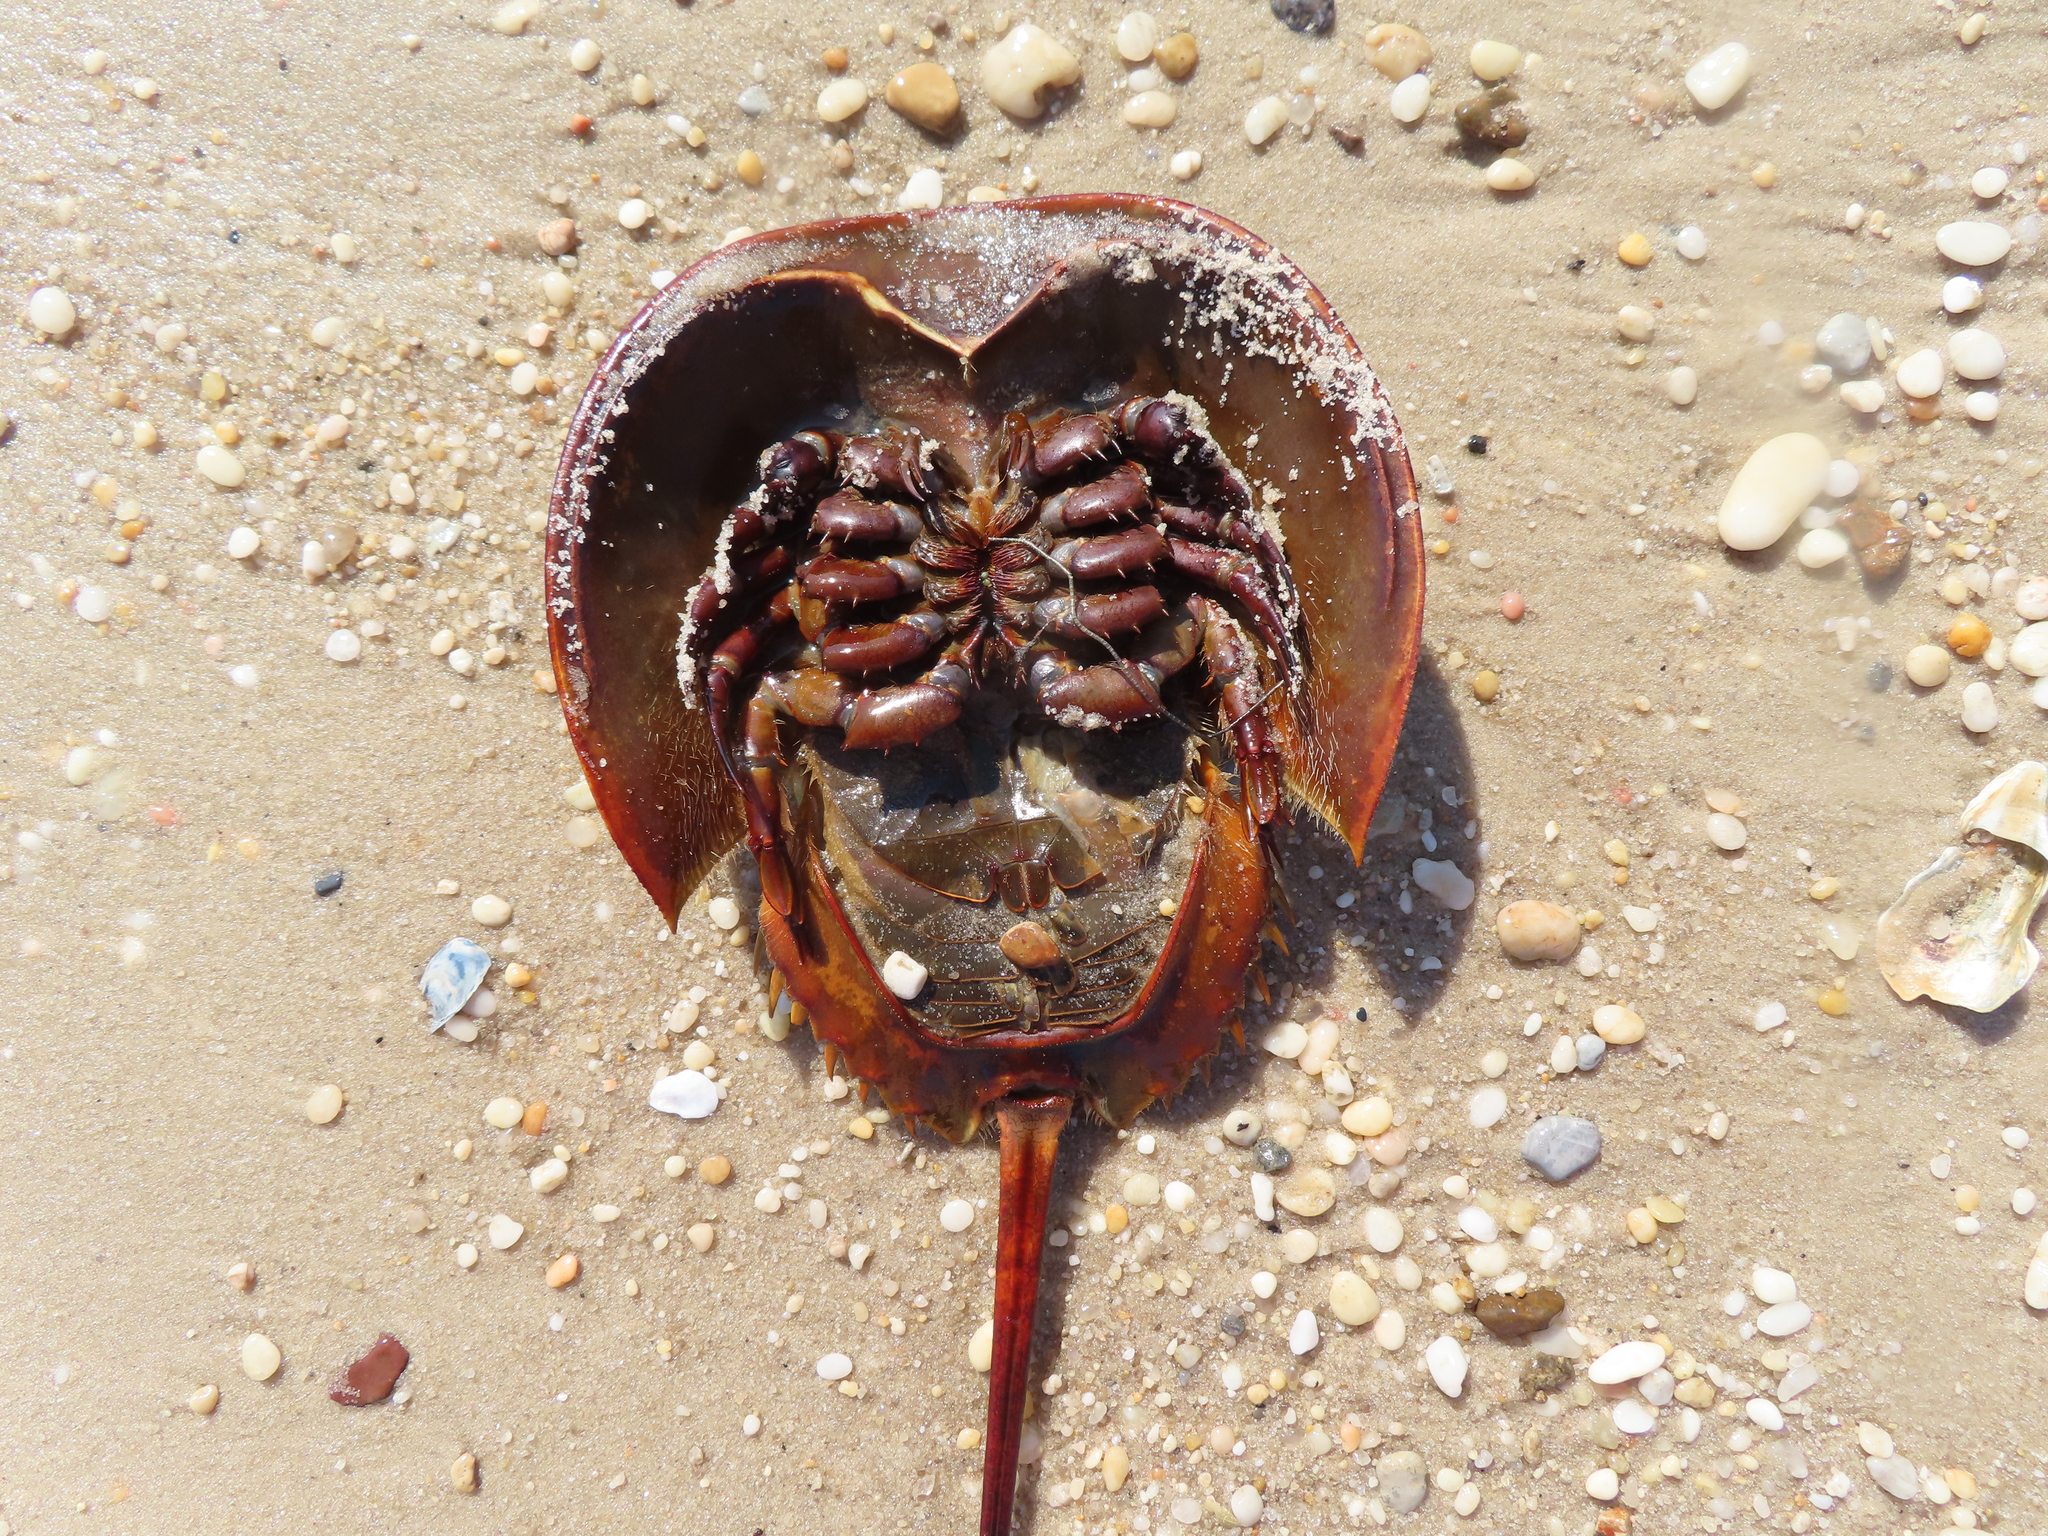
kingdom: Animalia
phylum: Arthropoda
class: Merostomata
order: Xiphosurida
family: Limulidae
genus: Limulus
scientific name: Limulus polyphemus
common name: Horseshoe crab
